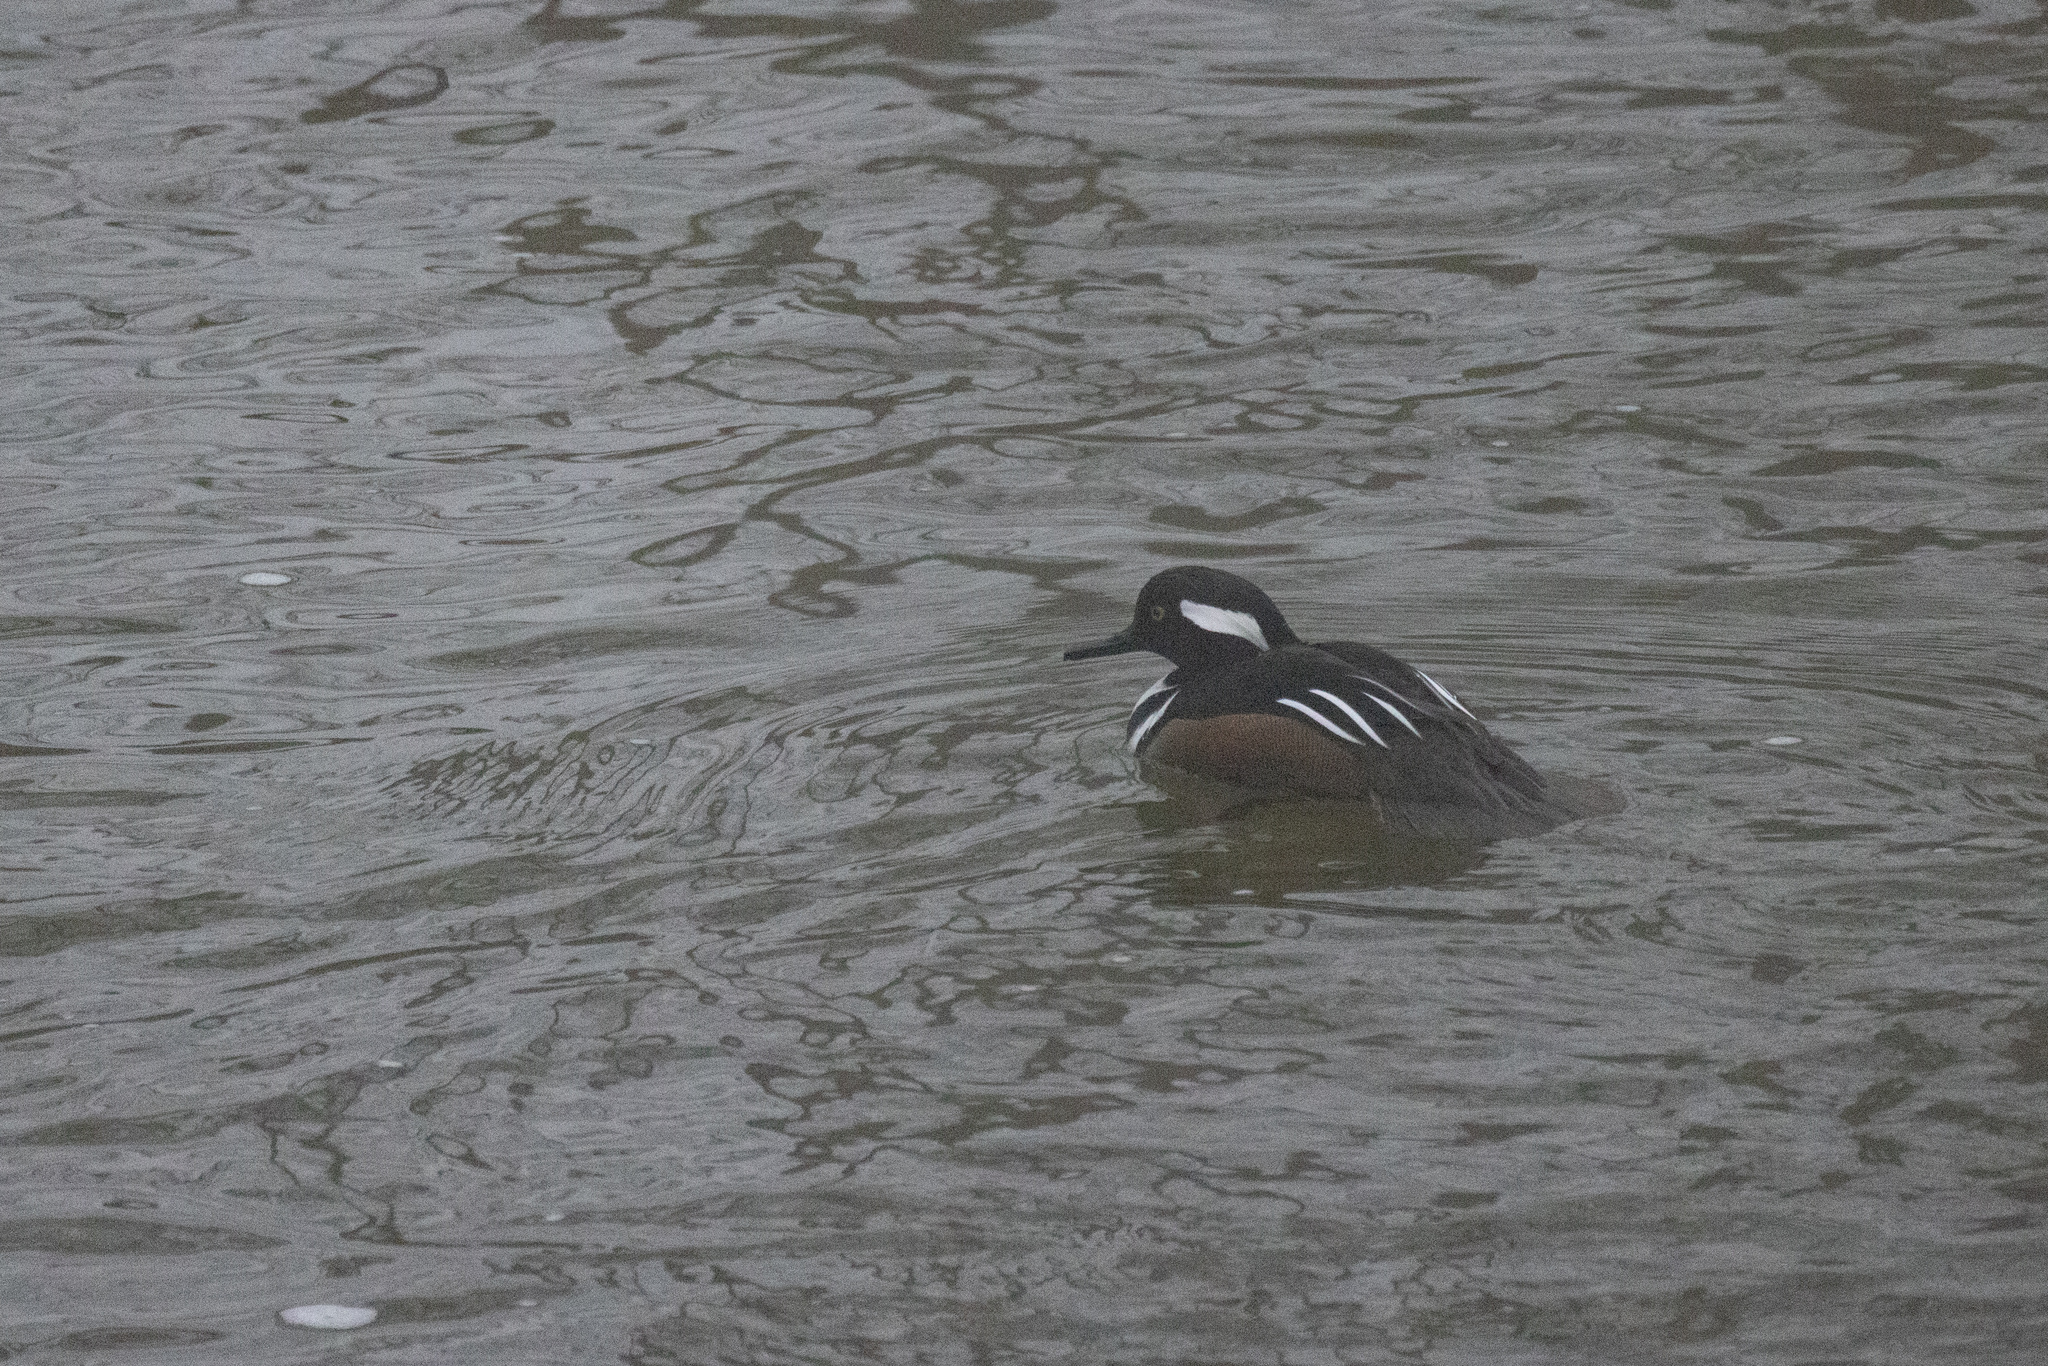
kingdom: Animalia
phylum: Chordata
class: Aves
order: Anseriformes
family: Anatidae
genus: Lophodytes
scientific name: Lophodytes cucullatus
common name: Hooded merganser
